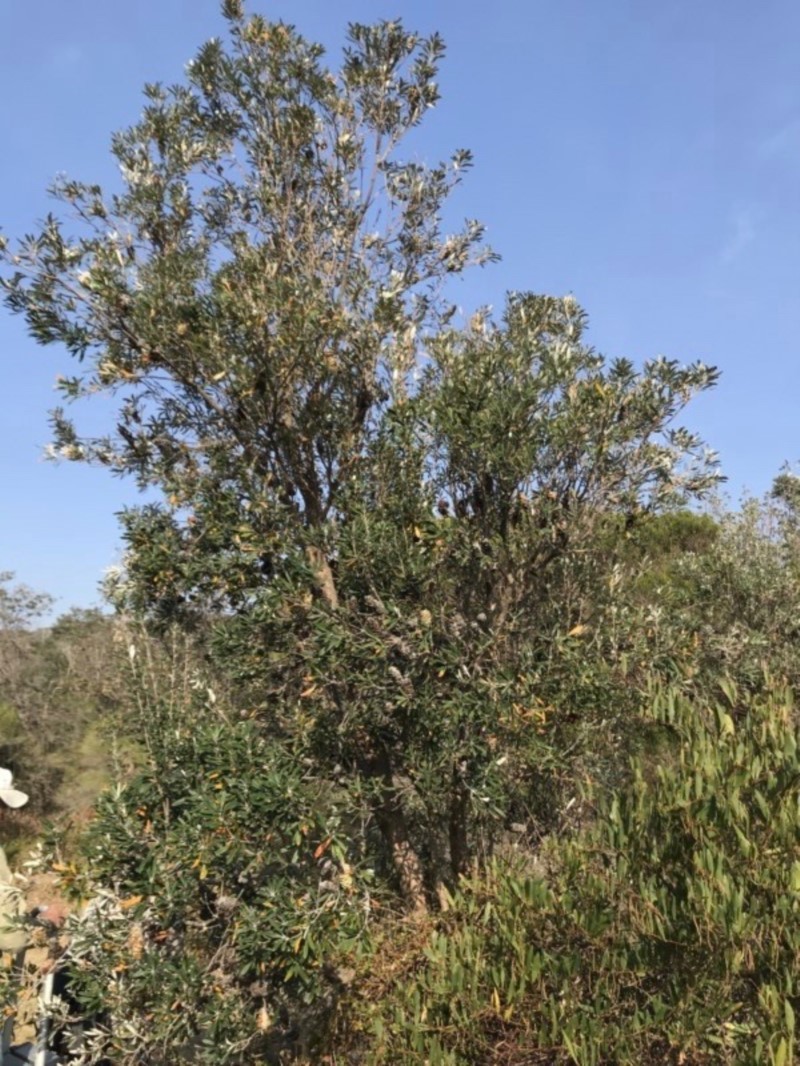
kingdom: Plantae
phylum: Tracheophyta
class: Magnoliopsida
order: Proteales
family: Proteaceae
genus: Banksia
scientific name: Banksia integrifolia
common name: White-honeysuckle
